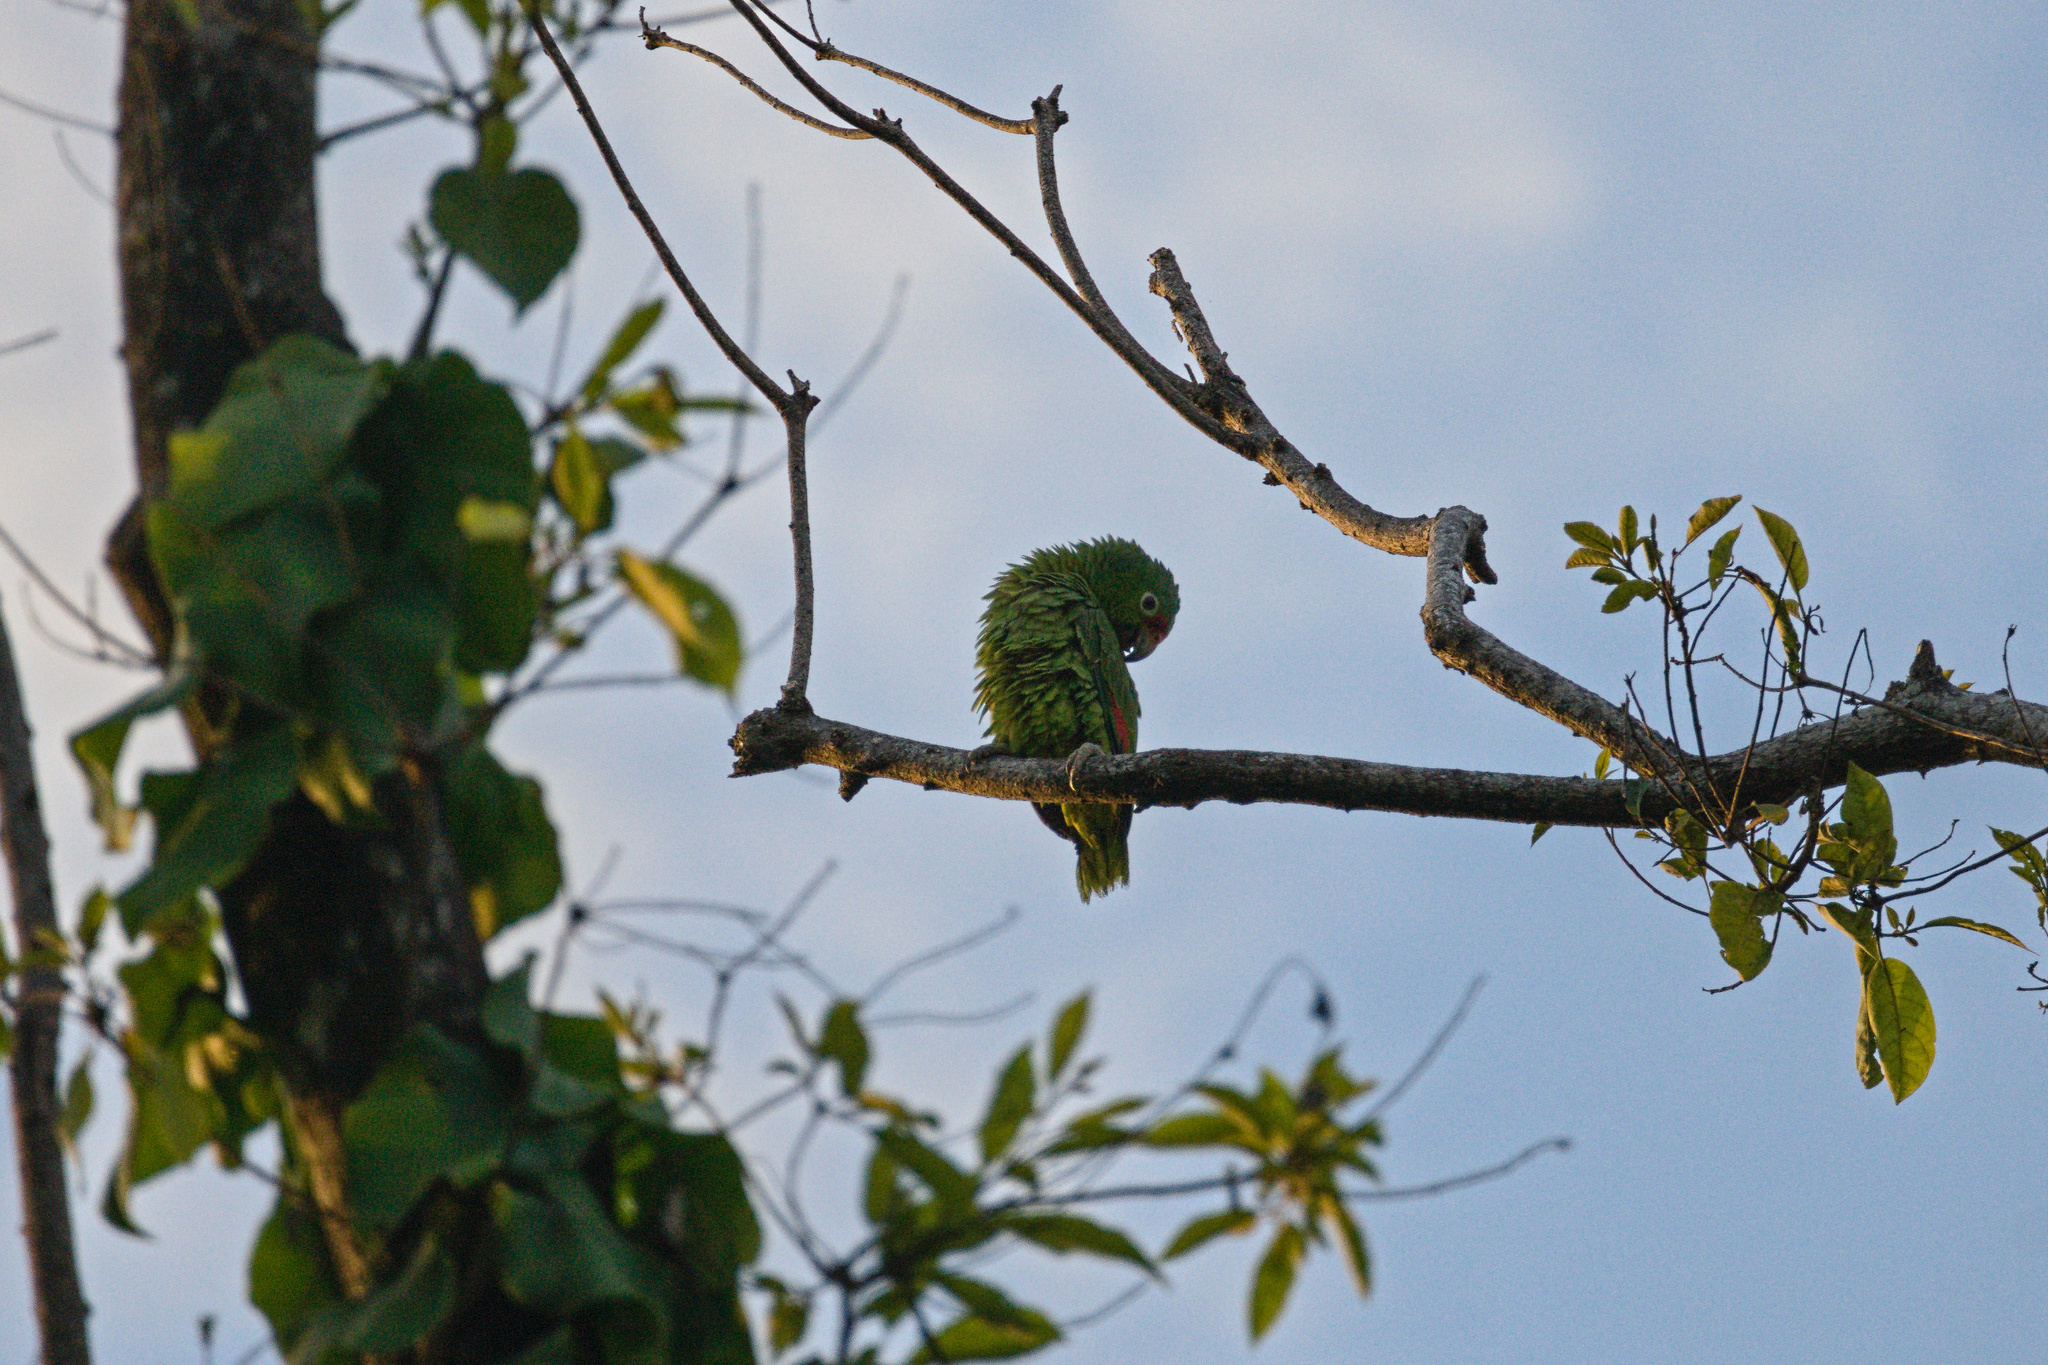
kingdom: Animalia
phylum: Chordata
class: Aves
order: Psittaciformes
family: Psittacidae
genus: Amazona
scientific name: Amazona autumnalis
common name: Red-lored amazon
